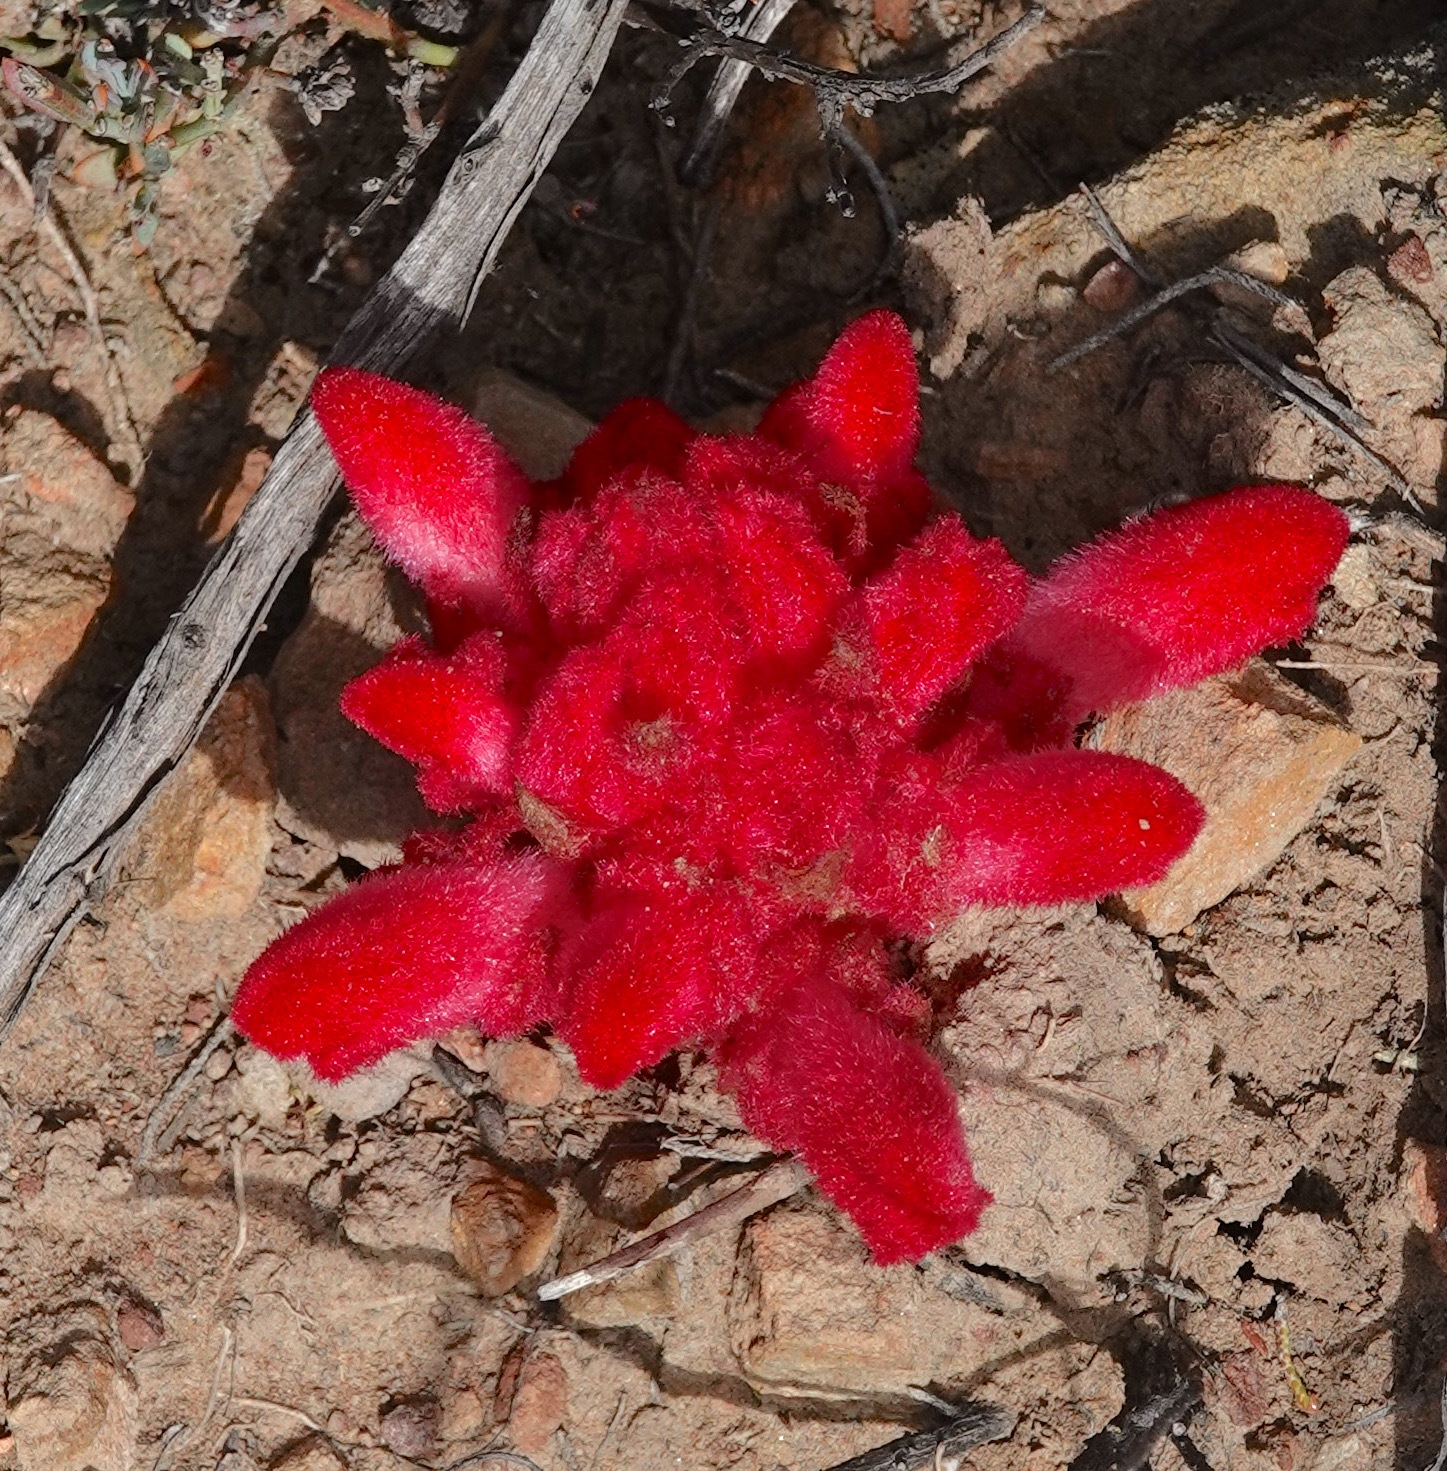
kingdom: Plantae
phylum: Tracheophyta
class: Magnoliopsida
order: Lamiales
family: Orobanchaceae
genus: Hyobanche
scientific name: Hyobanche sanguinea
